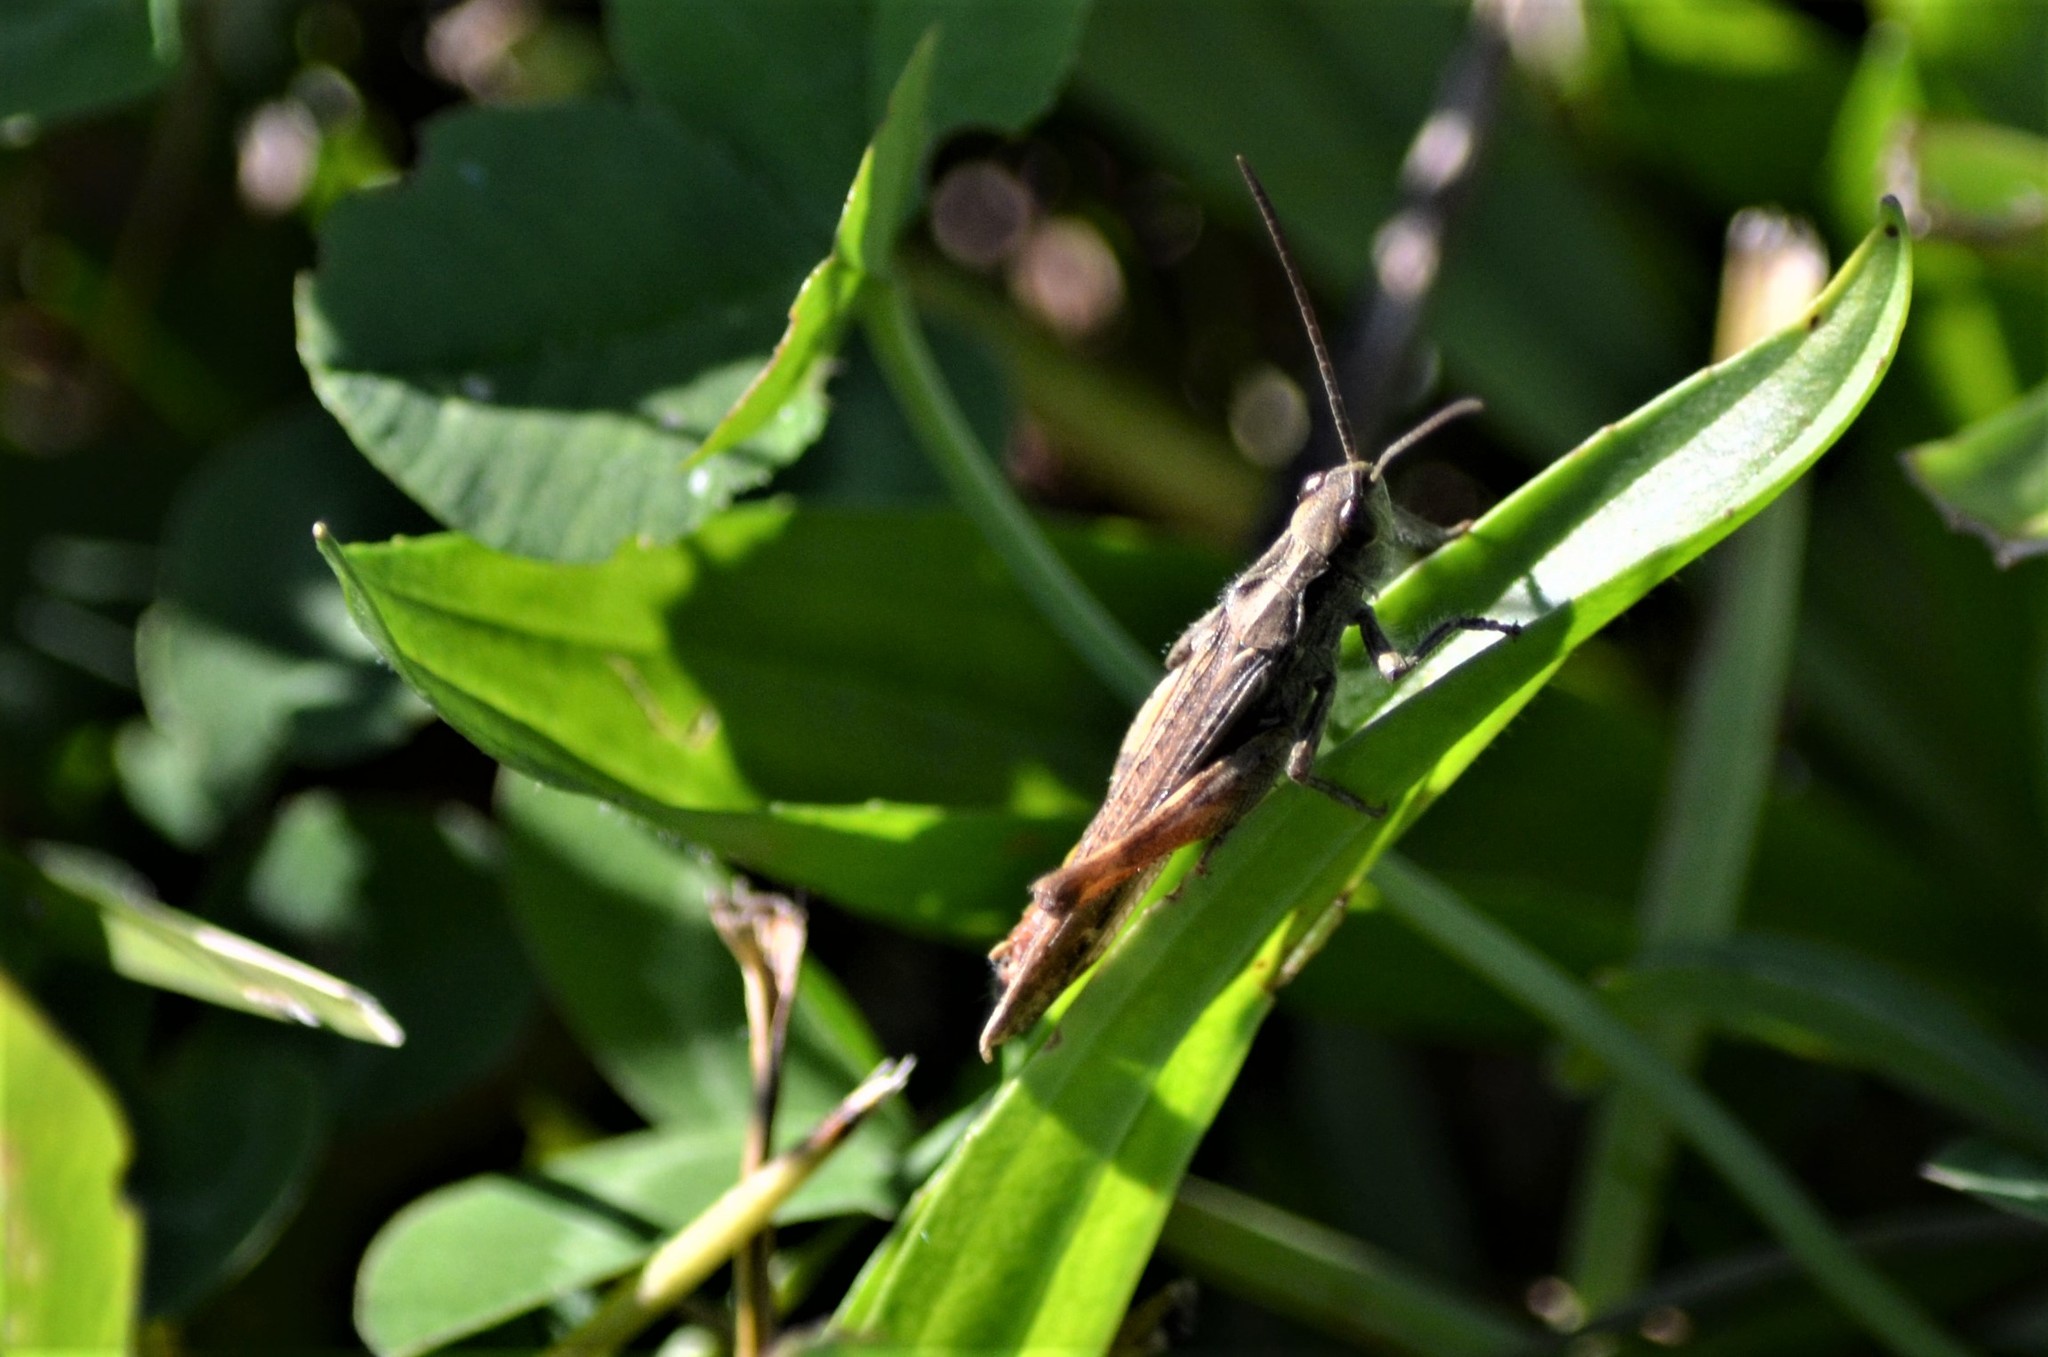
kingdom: Animalia
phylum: Arthropoda
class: Insecta
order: Orthoptera
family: Acrididae
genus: Chorthippus
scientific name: Chorthippus biguttulus
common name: Bow-winged grasshopper
